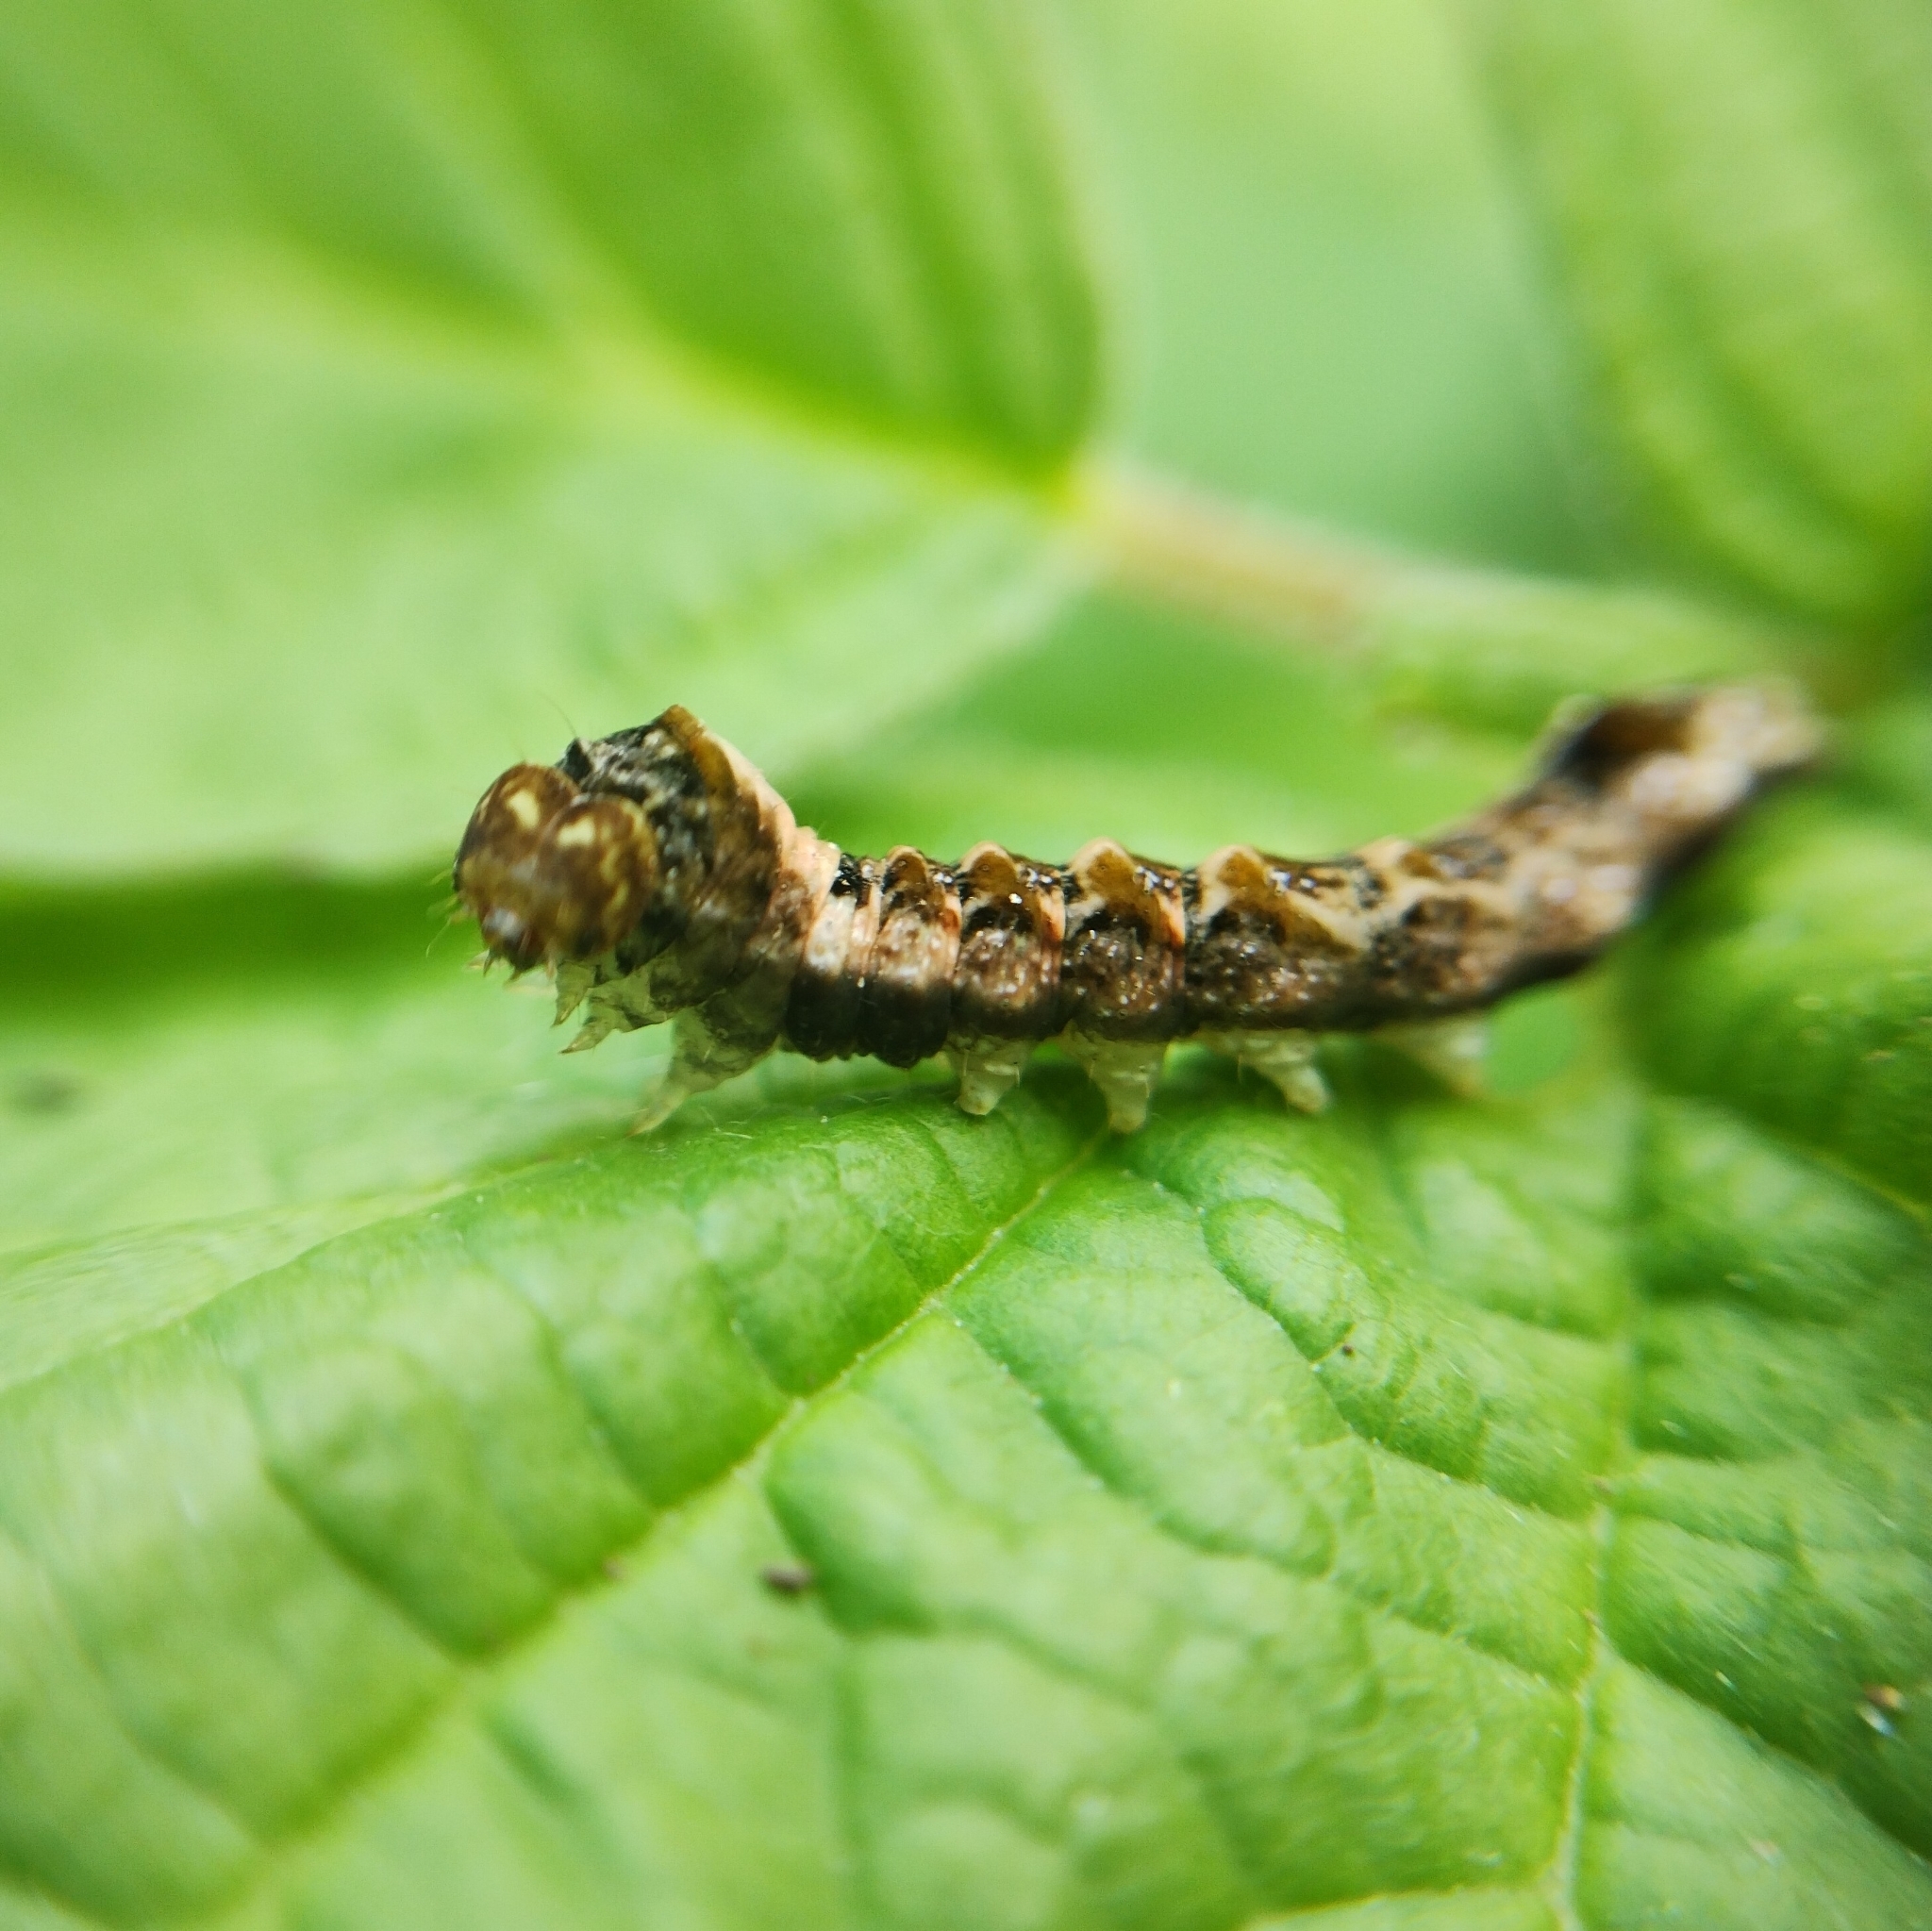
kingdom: Animalia
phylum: Arthropoda
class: Insecta
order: Lepidoptera
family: Drepanidae
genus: Thyatira
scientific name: Thyatira batis
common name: Peach blossom
